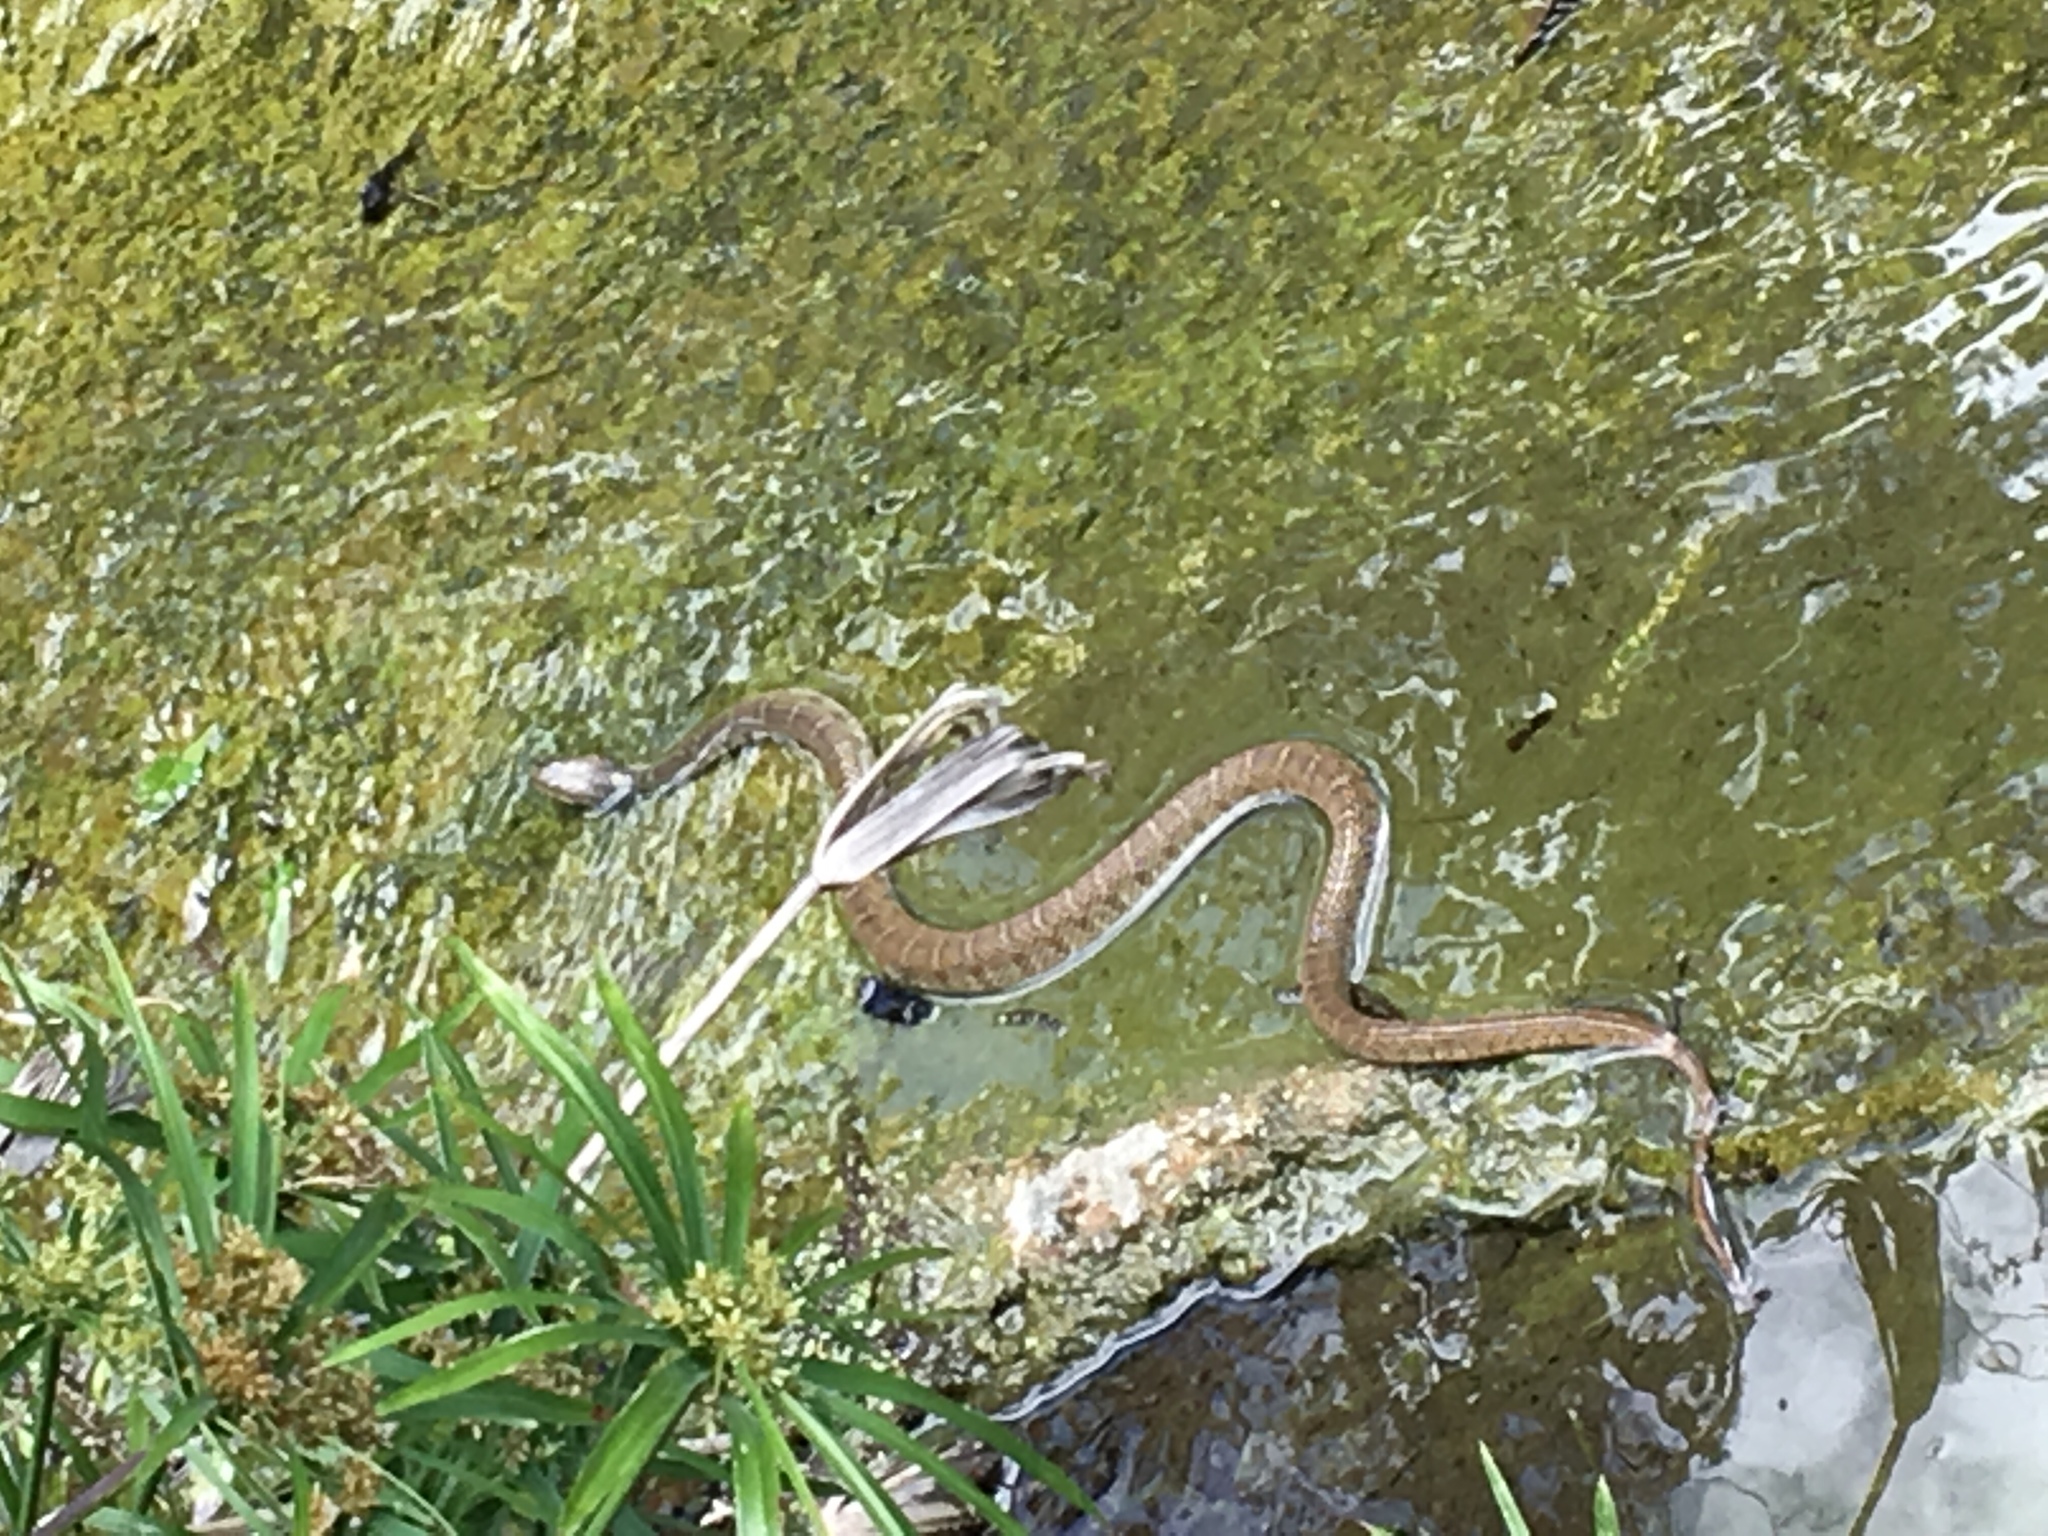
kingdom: Animalia
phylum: Chordata
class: Squamata
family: Colubridae
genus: Nerodia
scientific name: Nerodia erythrogaster
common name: Plainbelly water snake
